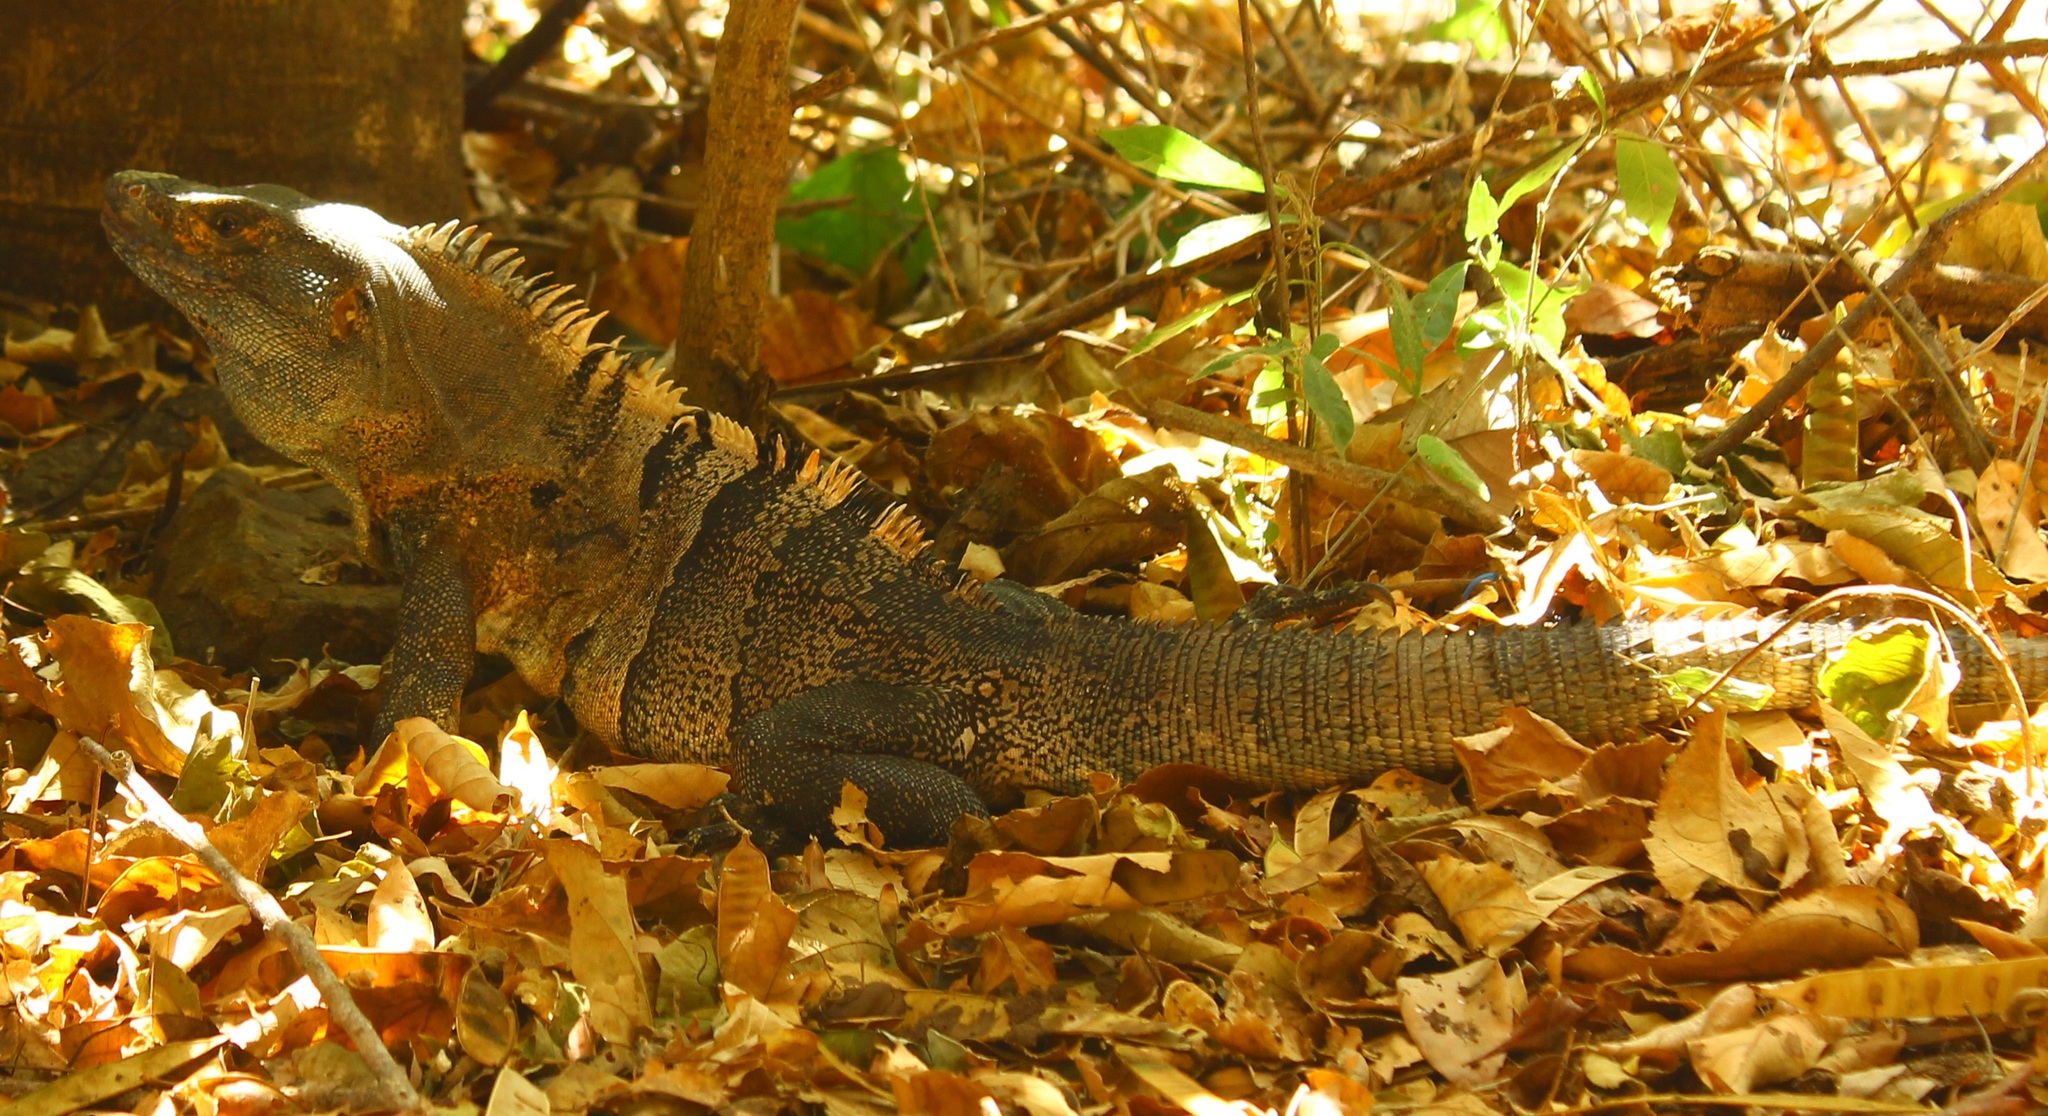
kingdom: Animalia
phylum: Chordata
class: Squamata
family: Iguanidae
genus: Ctenosaura
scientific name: Ctenosaura similis
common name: Black spiny-tailed iguana
